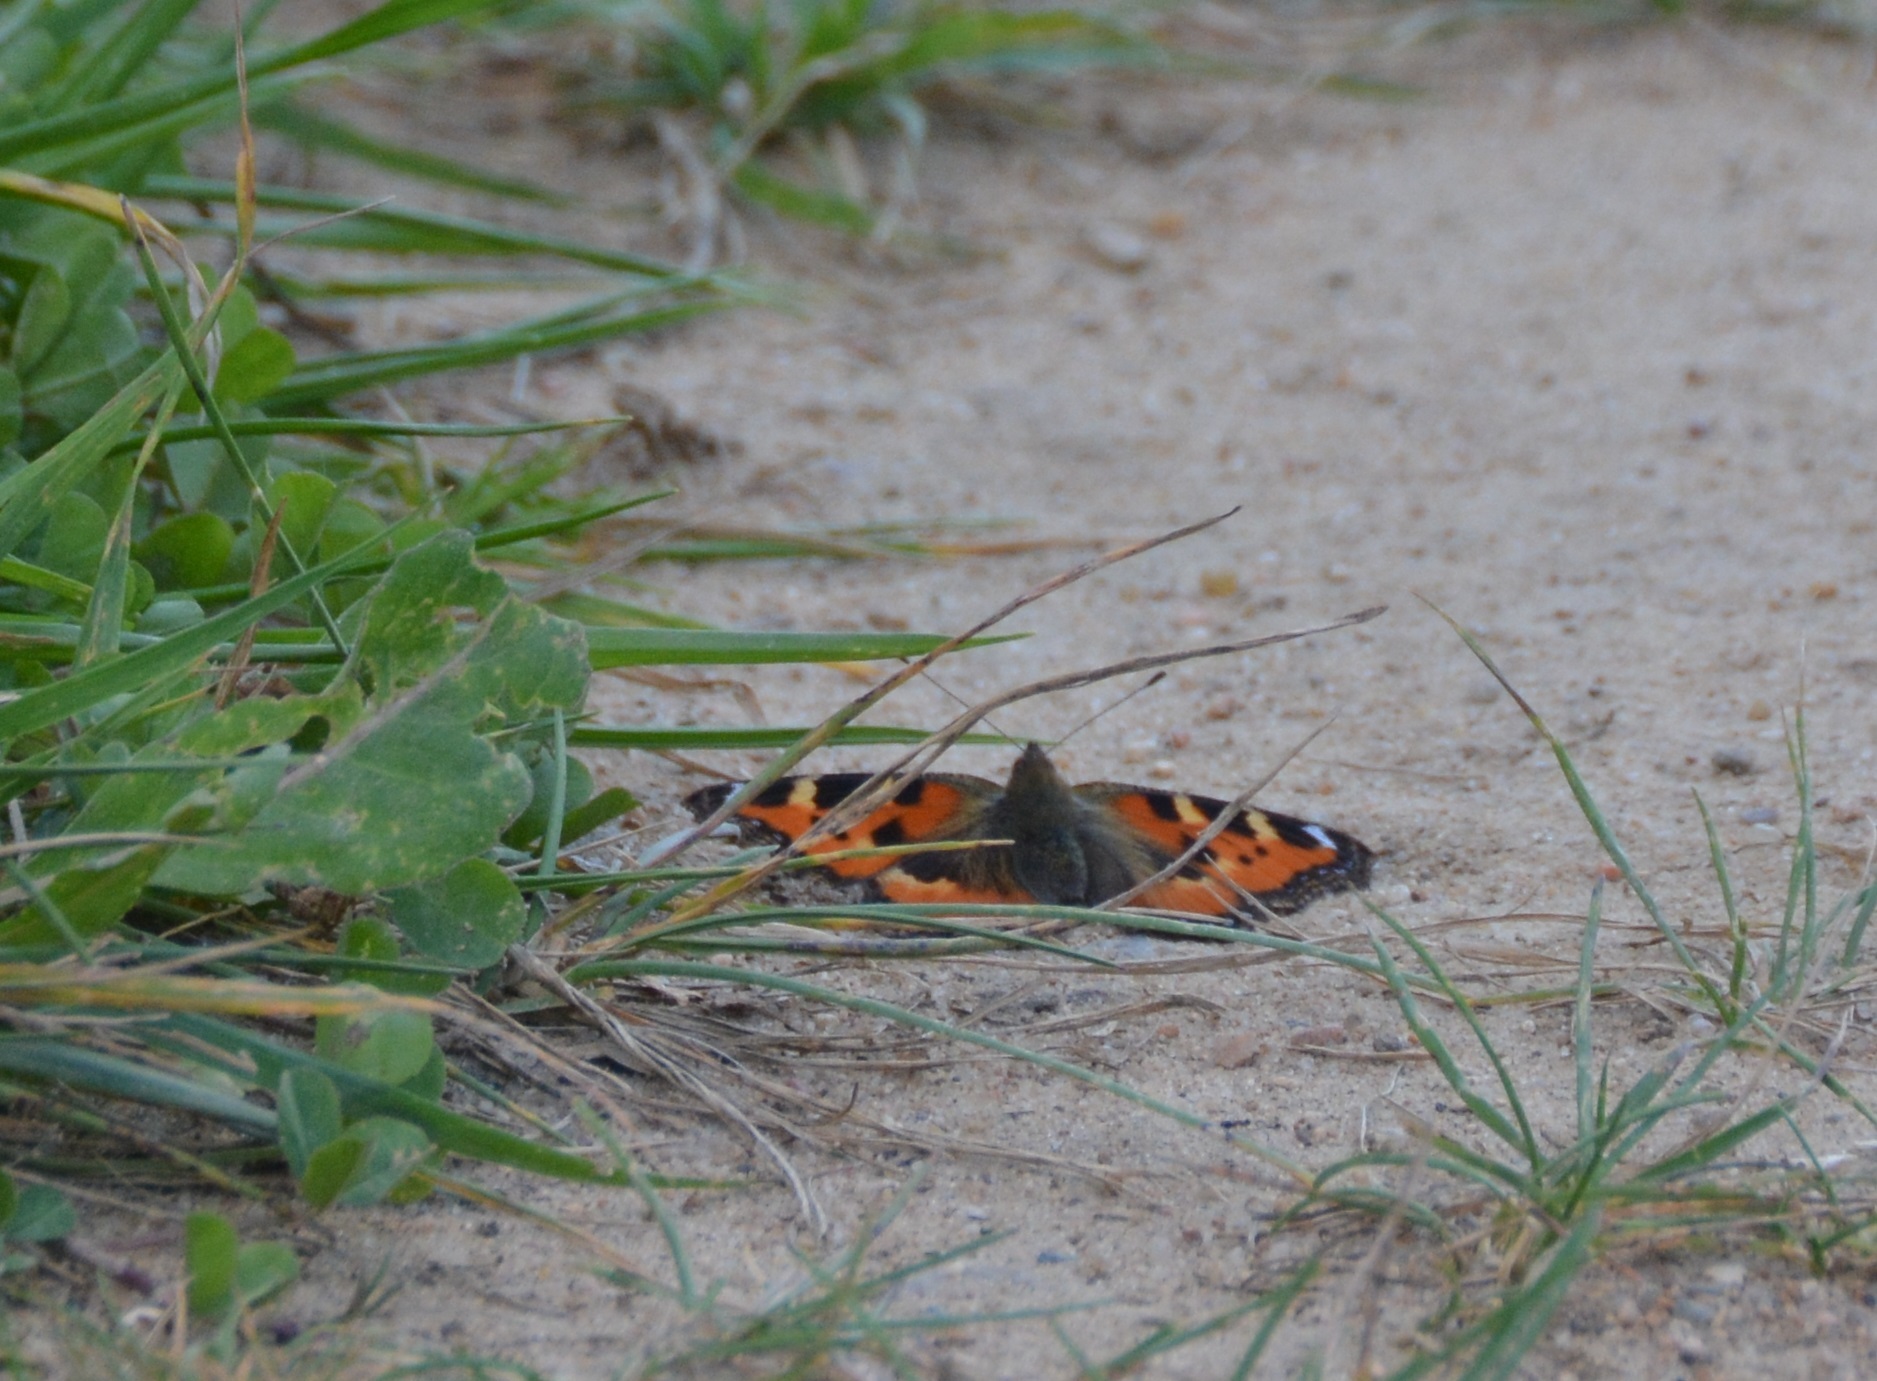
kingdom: Animalia
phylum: Arthropoda
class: Insecta
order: Lepidoptera
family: Nymphalidae
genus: Aglais
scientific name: Aglais urticae
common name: Small tortoiseshell
